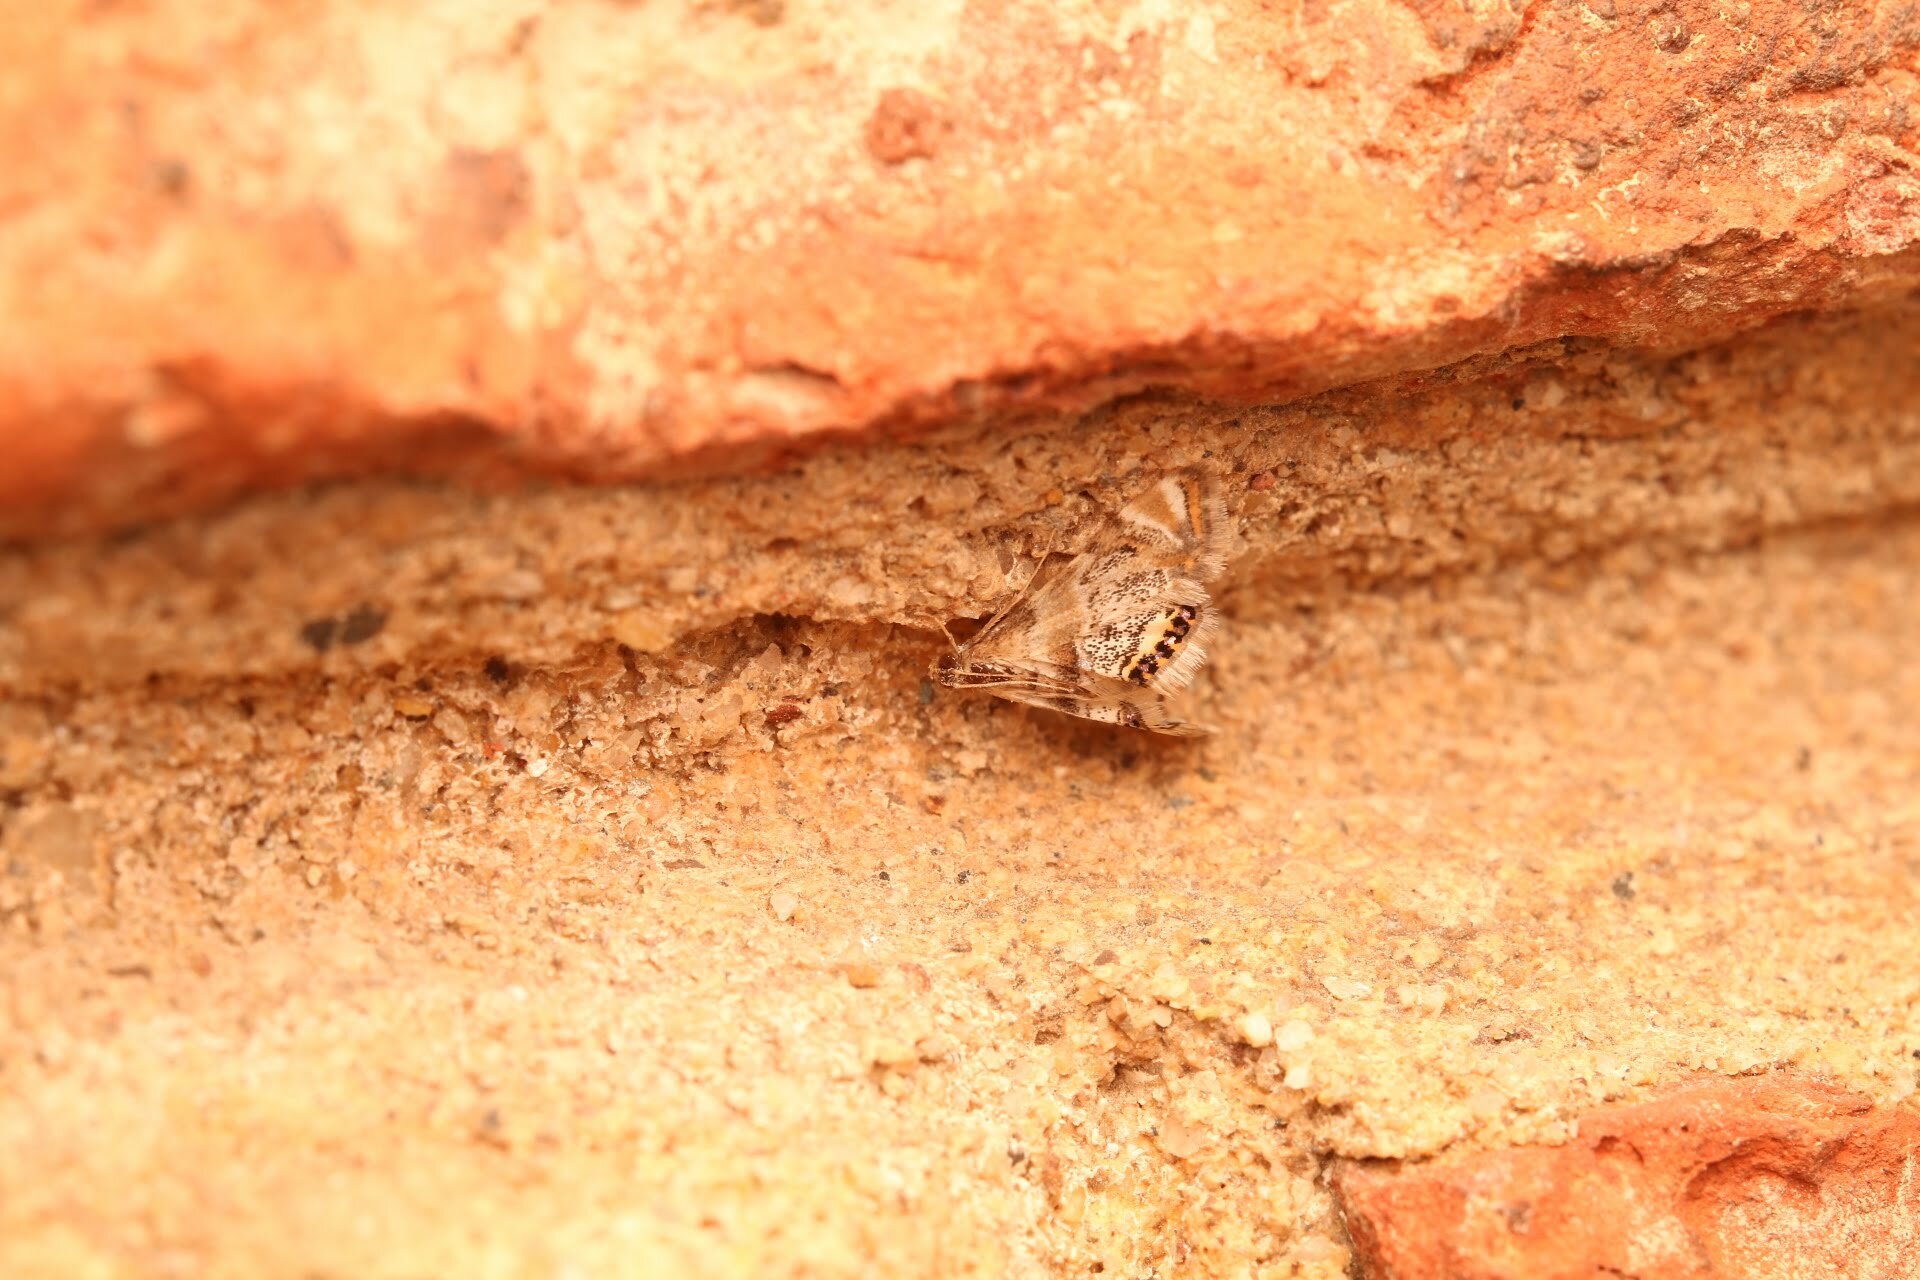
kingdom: Animalia
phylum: Arthropoda
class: Insecta
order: Lepidoptera
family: Crambidae
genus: Petrophila
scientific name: Petrophila fulicalis
